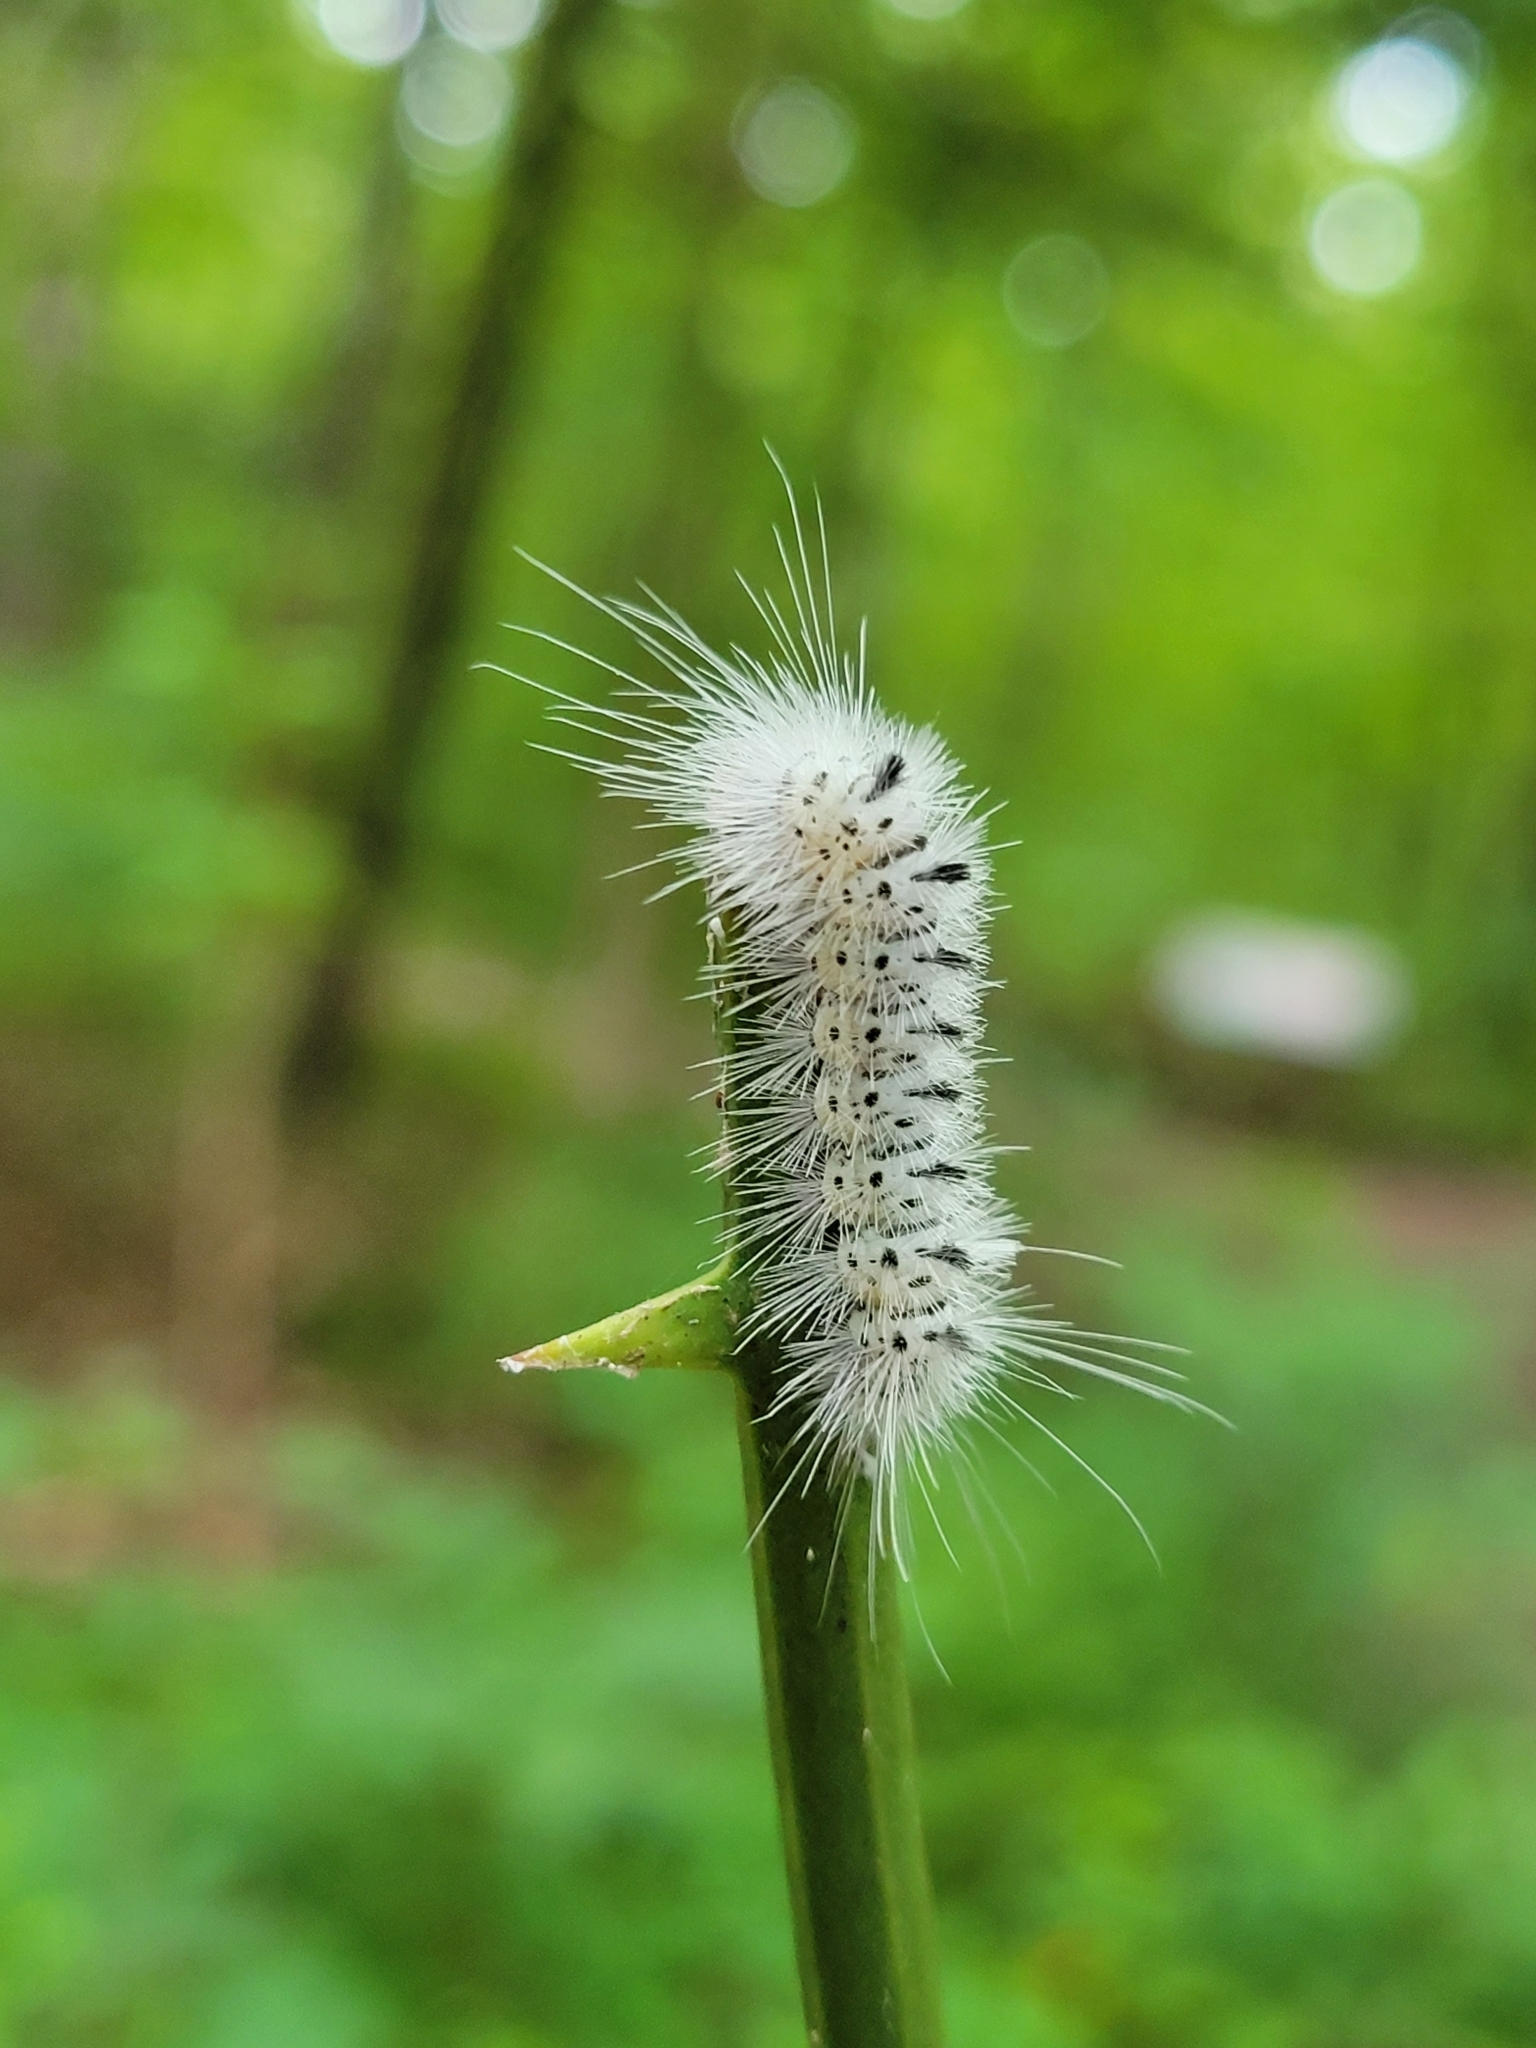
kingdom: Animalia
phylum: Arthropoda
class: Insecta
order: Lepidoptera
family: Erebidae
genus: Lophocampa
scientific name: Lophocampa caryae
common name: Hickory tussock moth
